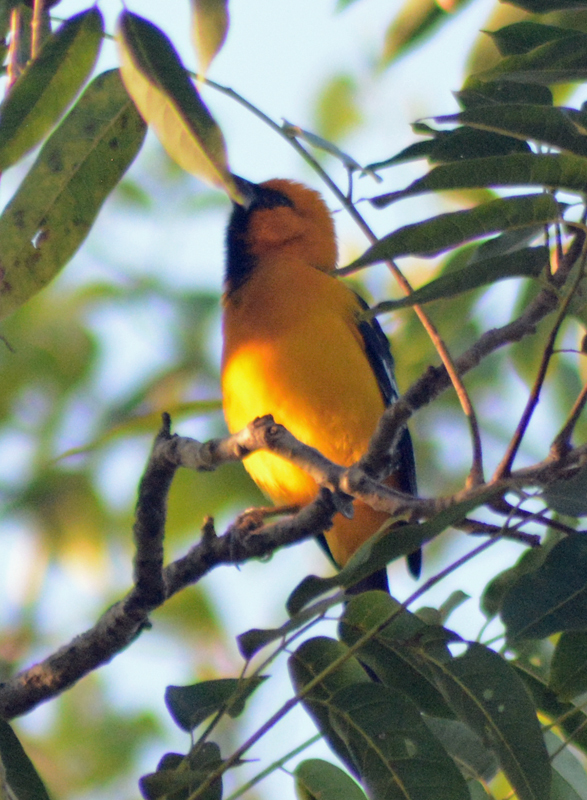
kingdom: Animalia
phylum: Chordata
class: Aves
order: Passeriformes
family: Icteridae
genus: Icterus
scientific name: Icterus gularis
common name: Altamira oriole
